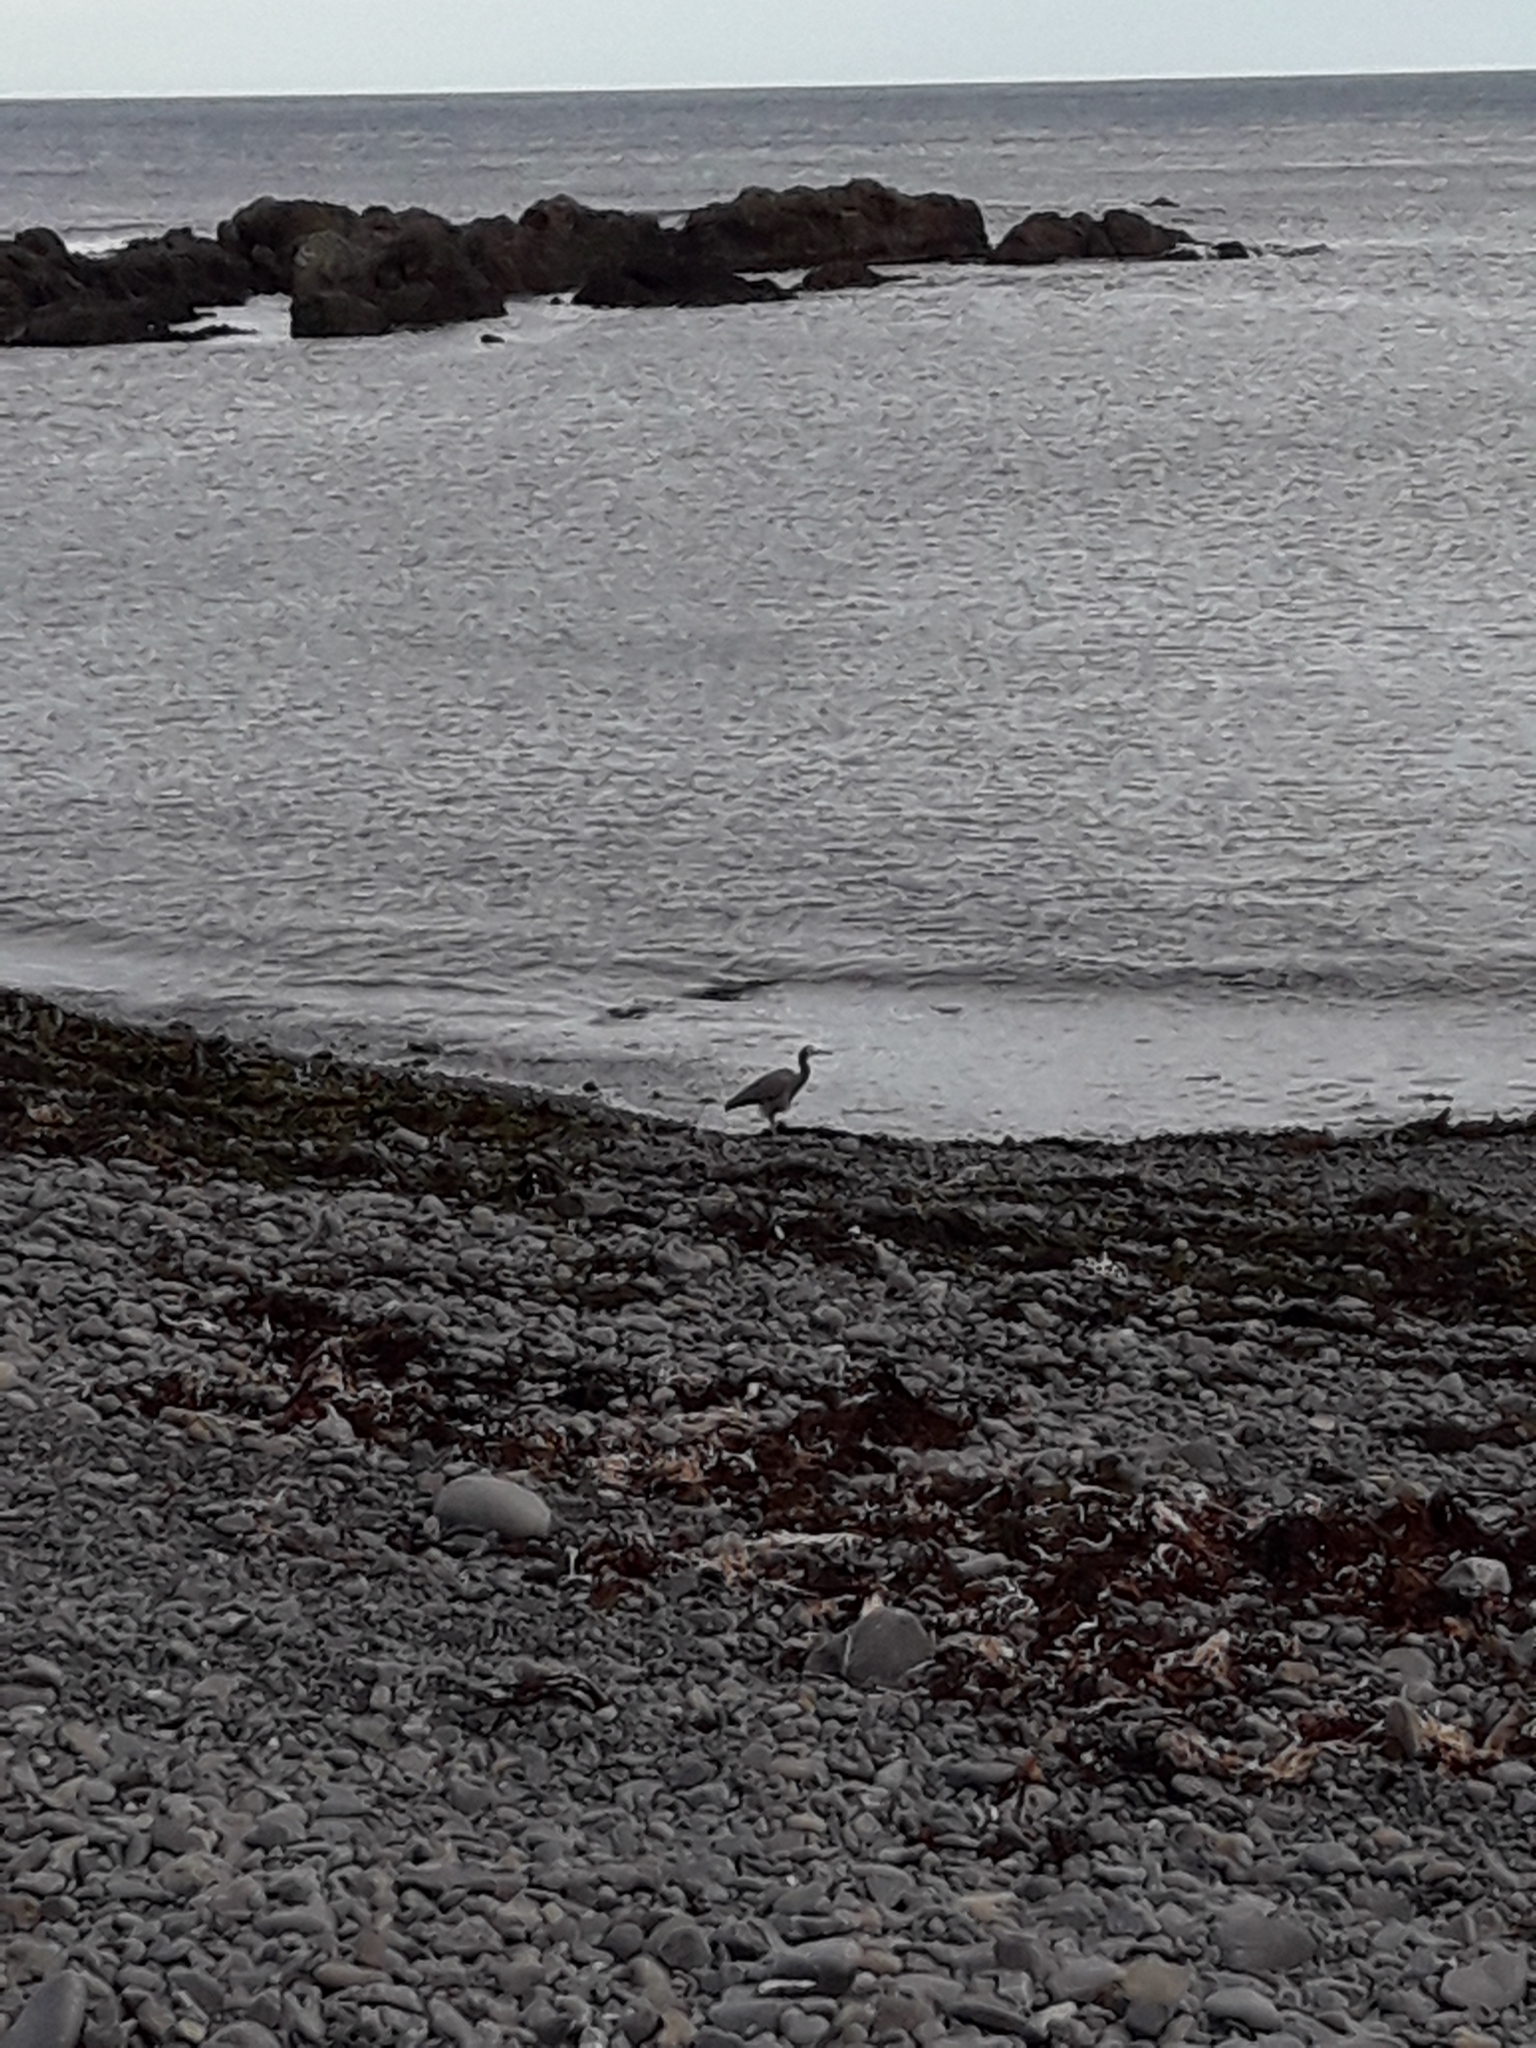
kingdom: Animalia
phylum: Chordata
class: Aves
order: Pelecaniformes
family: Ardeidae
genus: Egretta
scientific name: Egretta novaehollandiae
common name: White-faced heron
